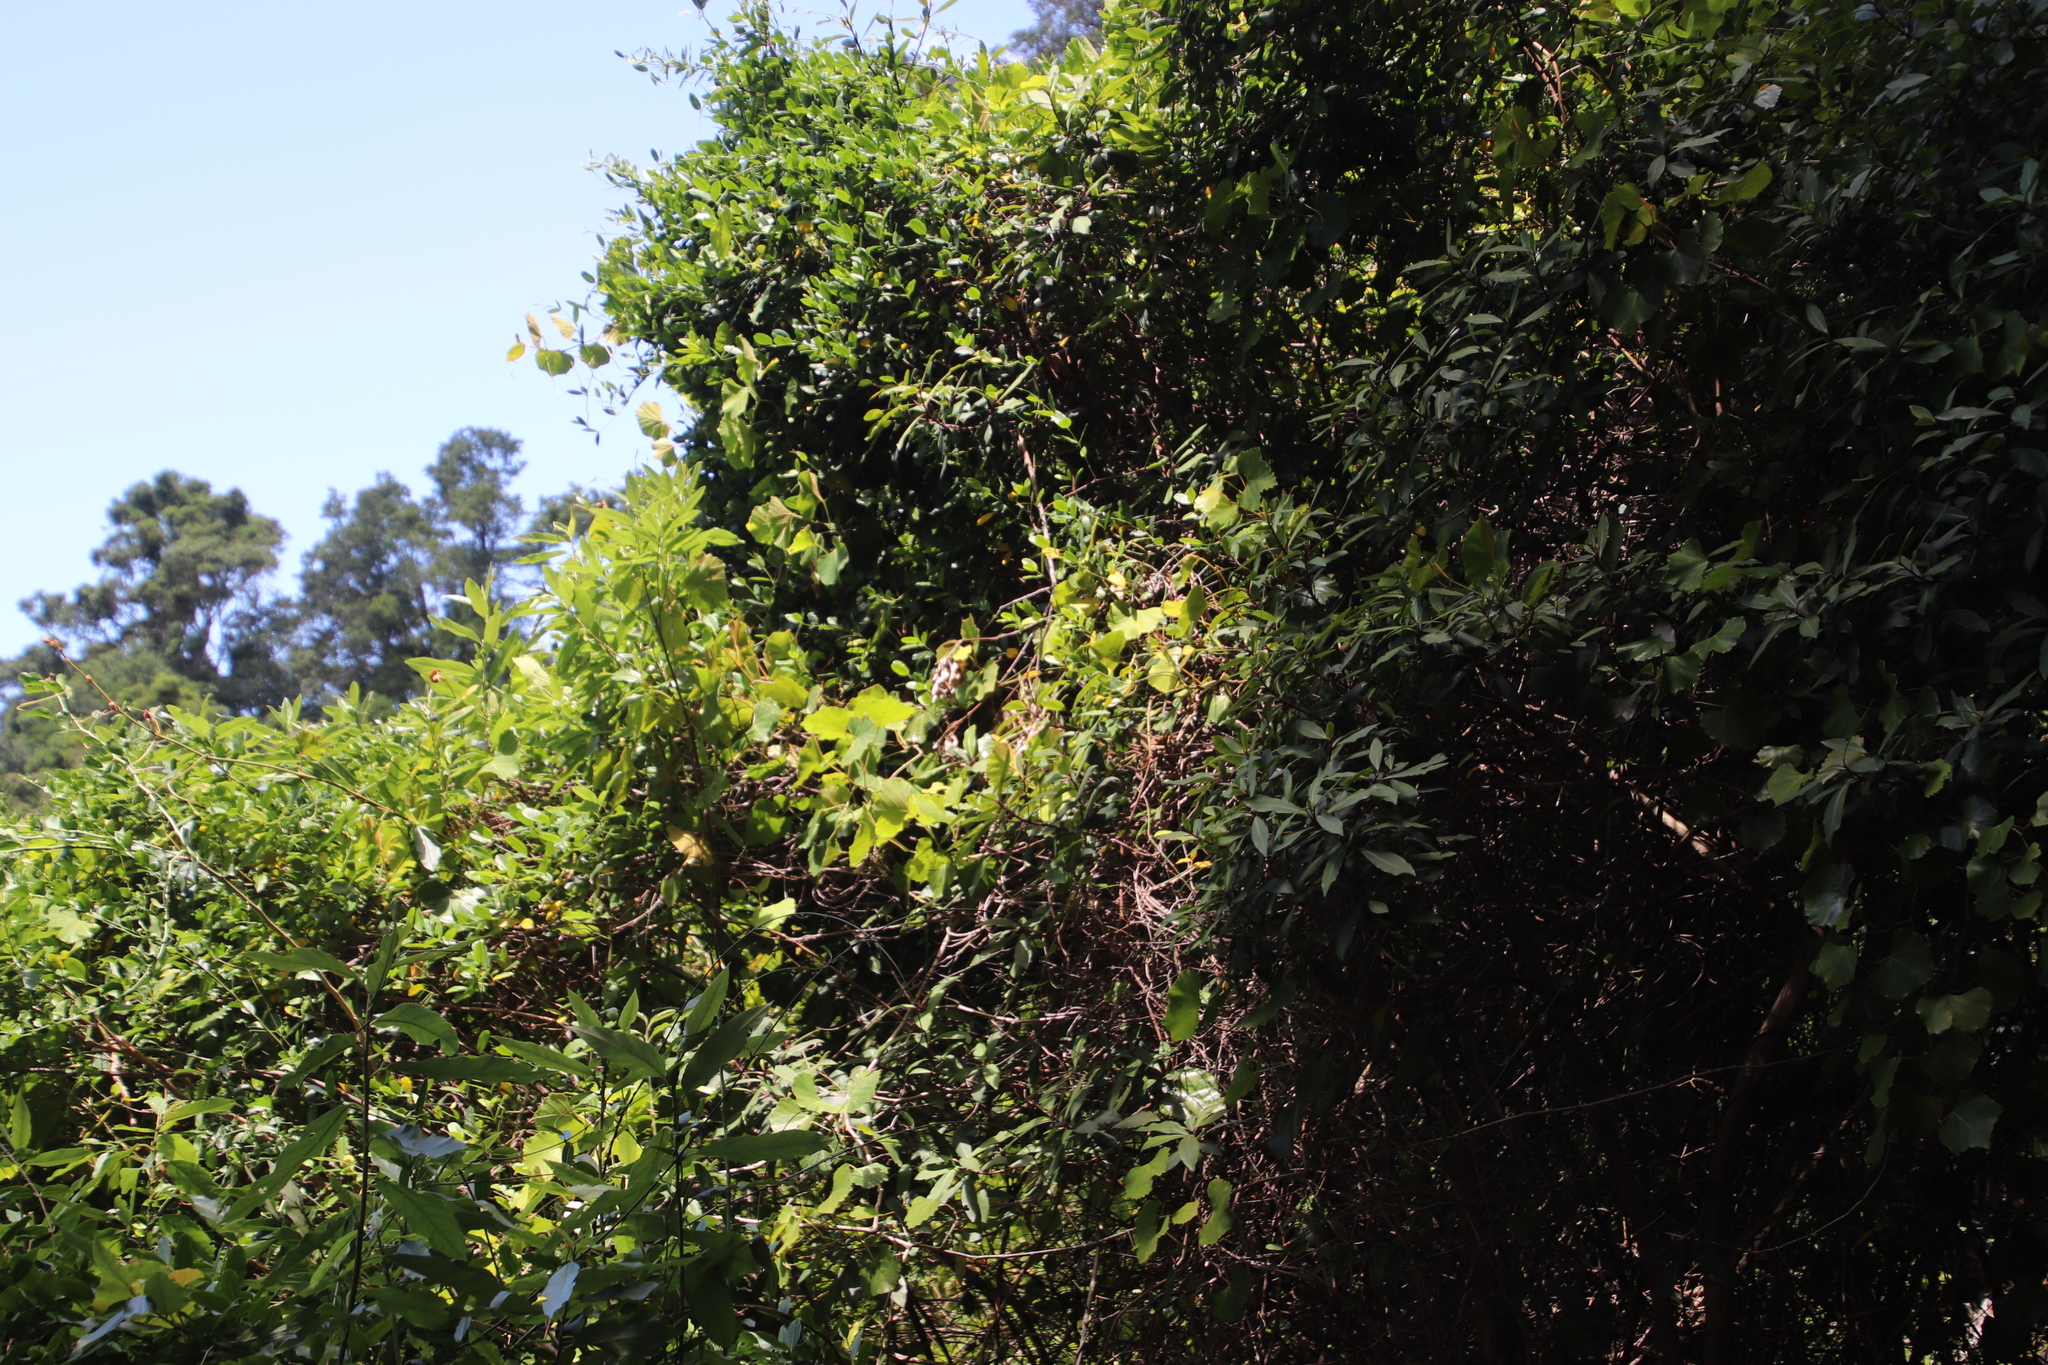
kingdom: Plantae
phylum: Tracheophyta
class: Magnoliopsida
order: Vitales
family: Vitaceae
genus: Rhoicissus
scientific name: Rhoicissus tomentosa
